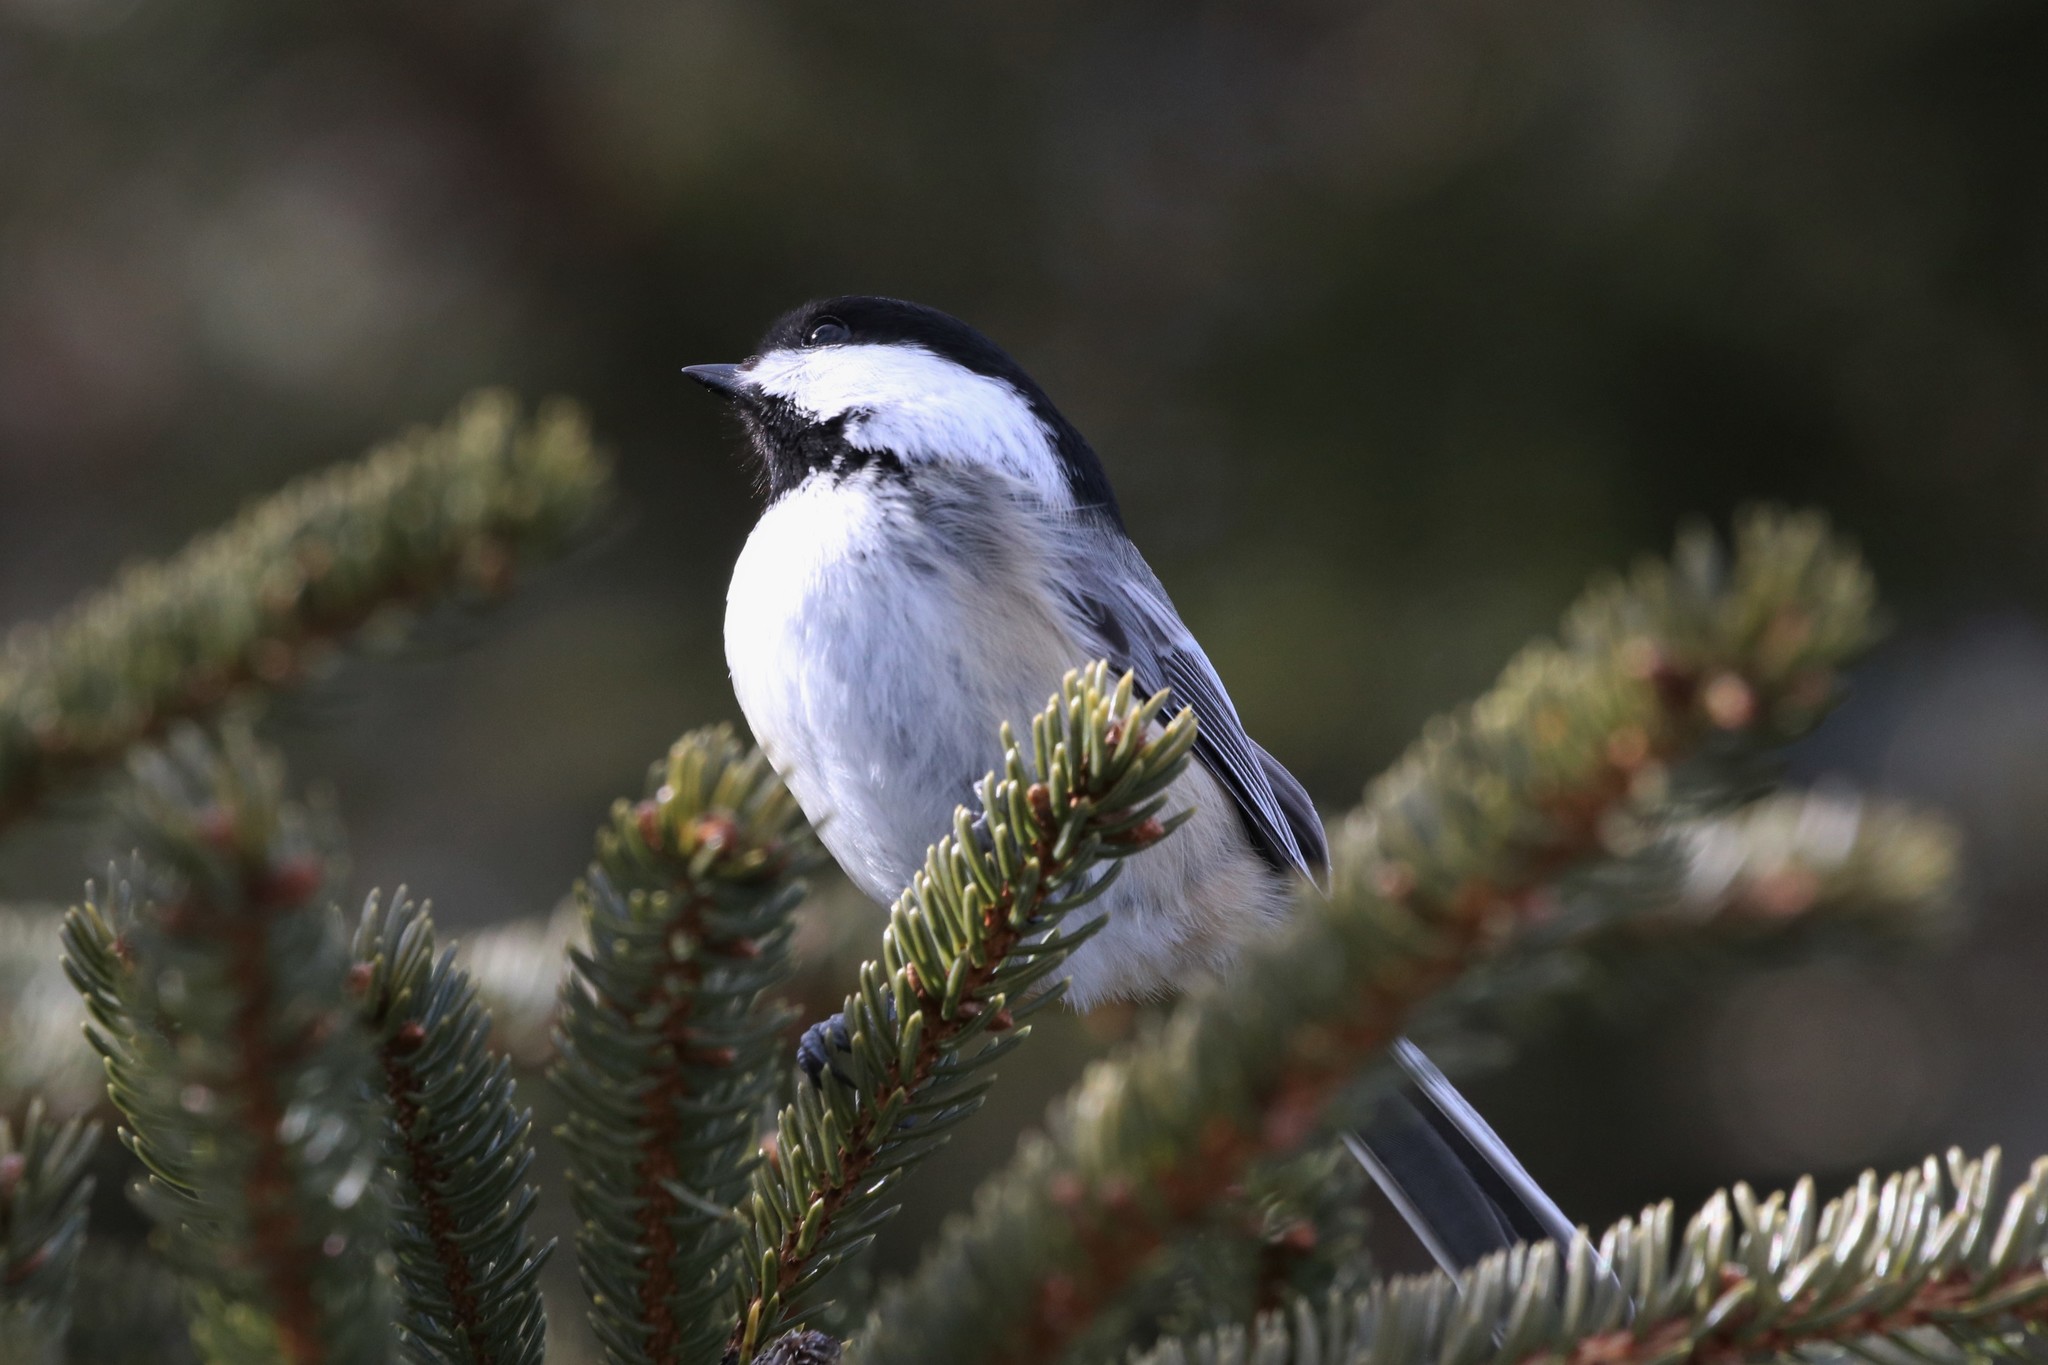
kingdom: Animalia
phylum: Chordata
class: Aves
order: Passeriformes
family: Paridae
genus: Poecile
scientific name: Poecile atricapillus
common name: Black-capped chickadee
